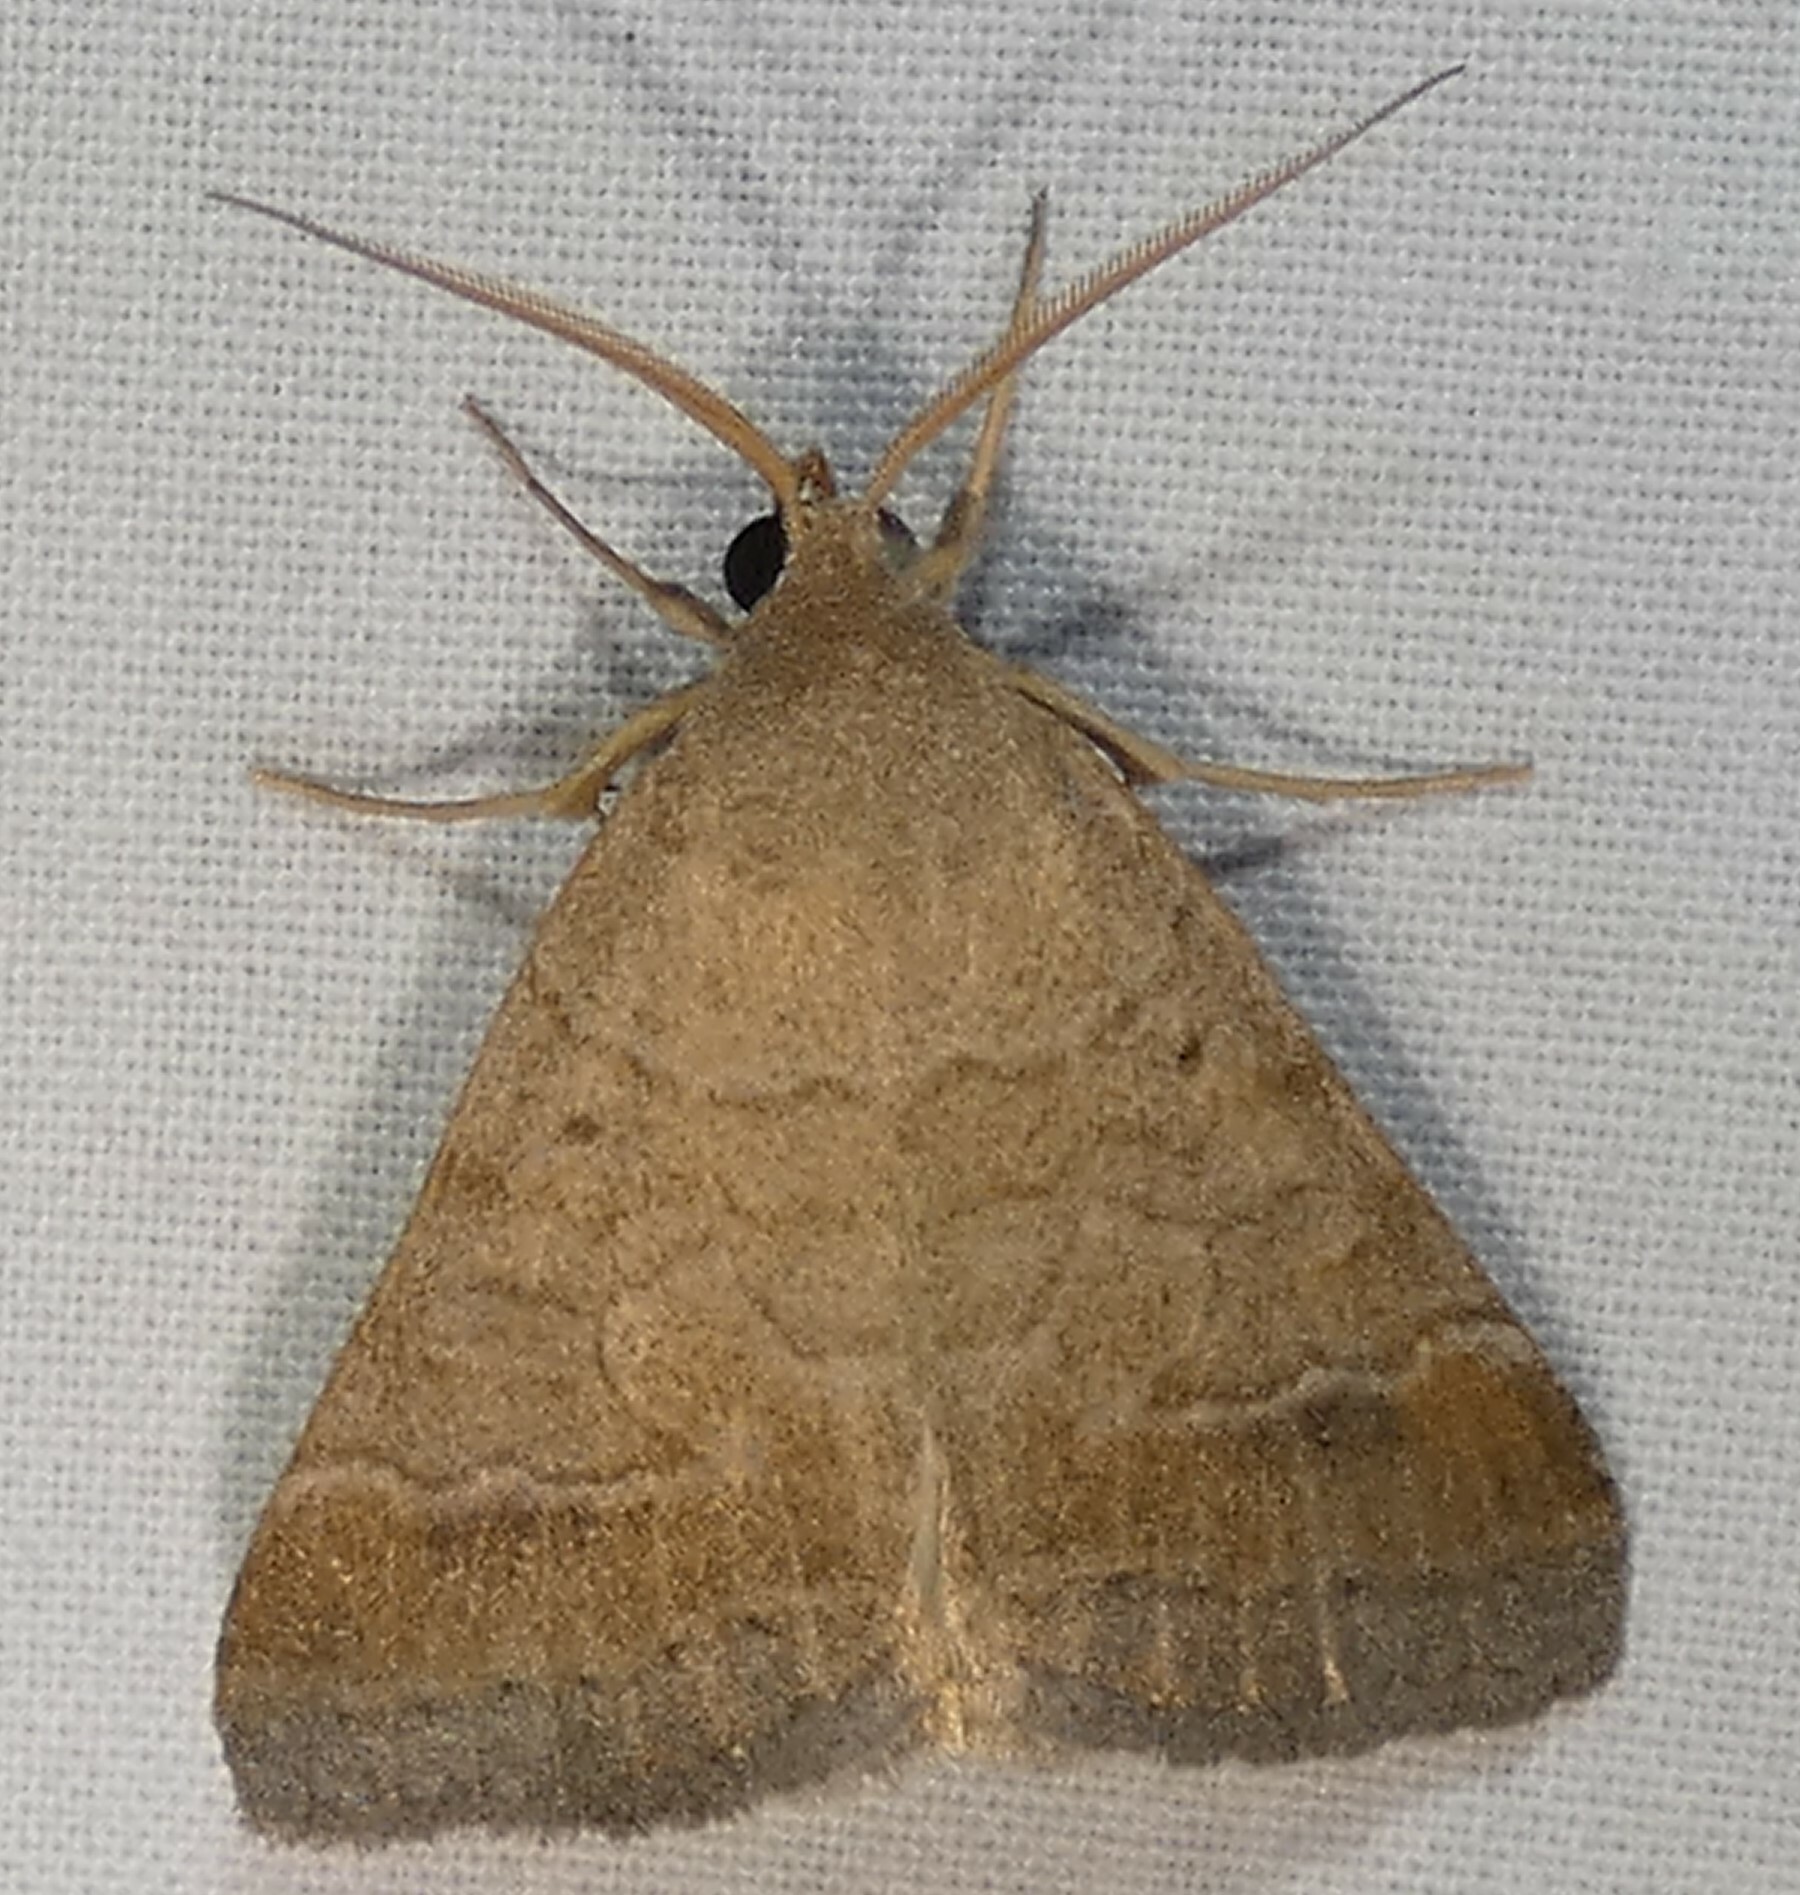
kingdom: Animalia
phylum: Arthropoda
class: Insecta
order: Lepidoptera
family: Erebidae
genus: Caenurgia
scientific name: Caenurgia chloropha
